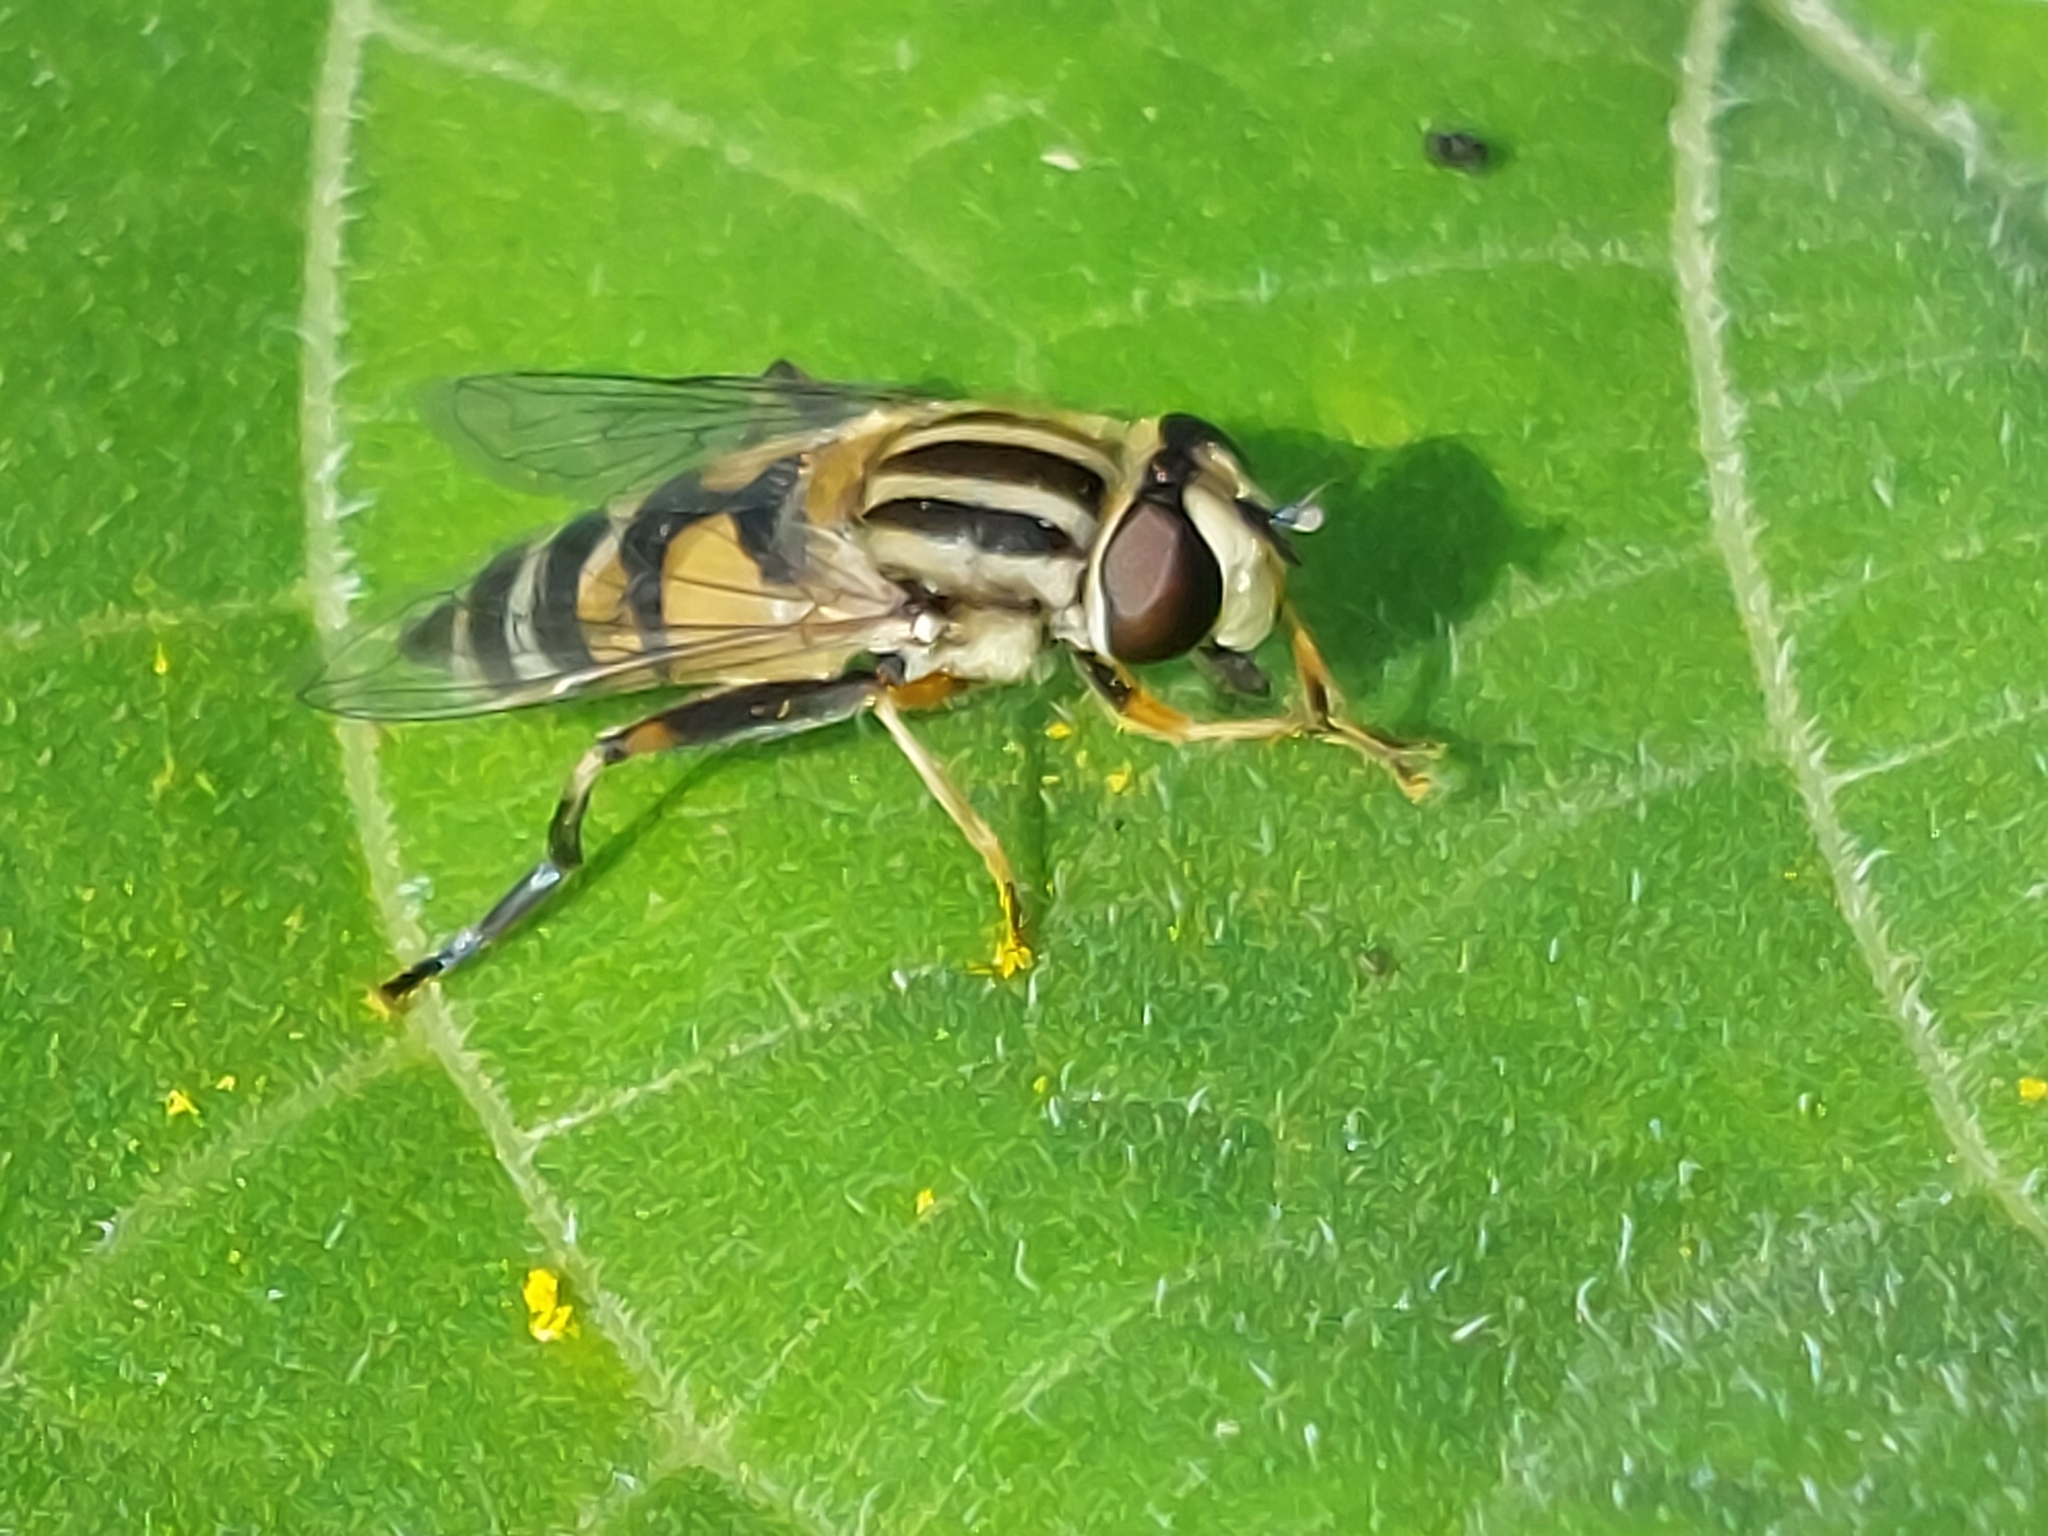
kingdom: Animalia
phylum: Arthropoda
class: Insecta
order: Diptera
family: Syrphidae
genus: Helophilus
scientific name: Helophilus trivittatus
